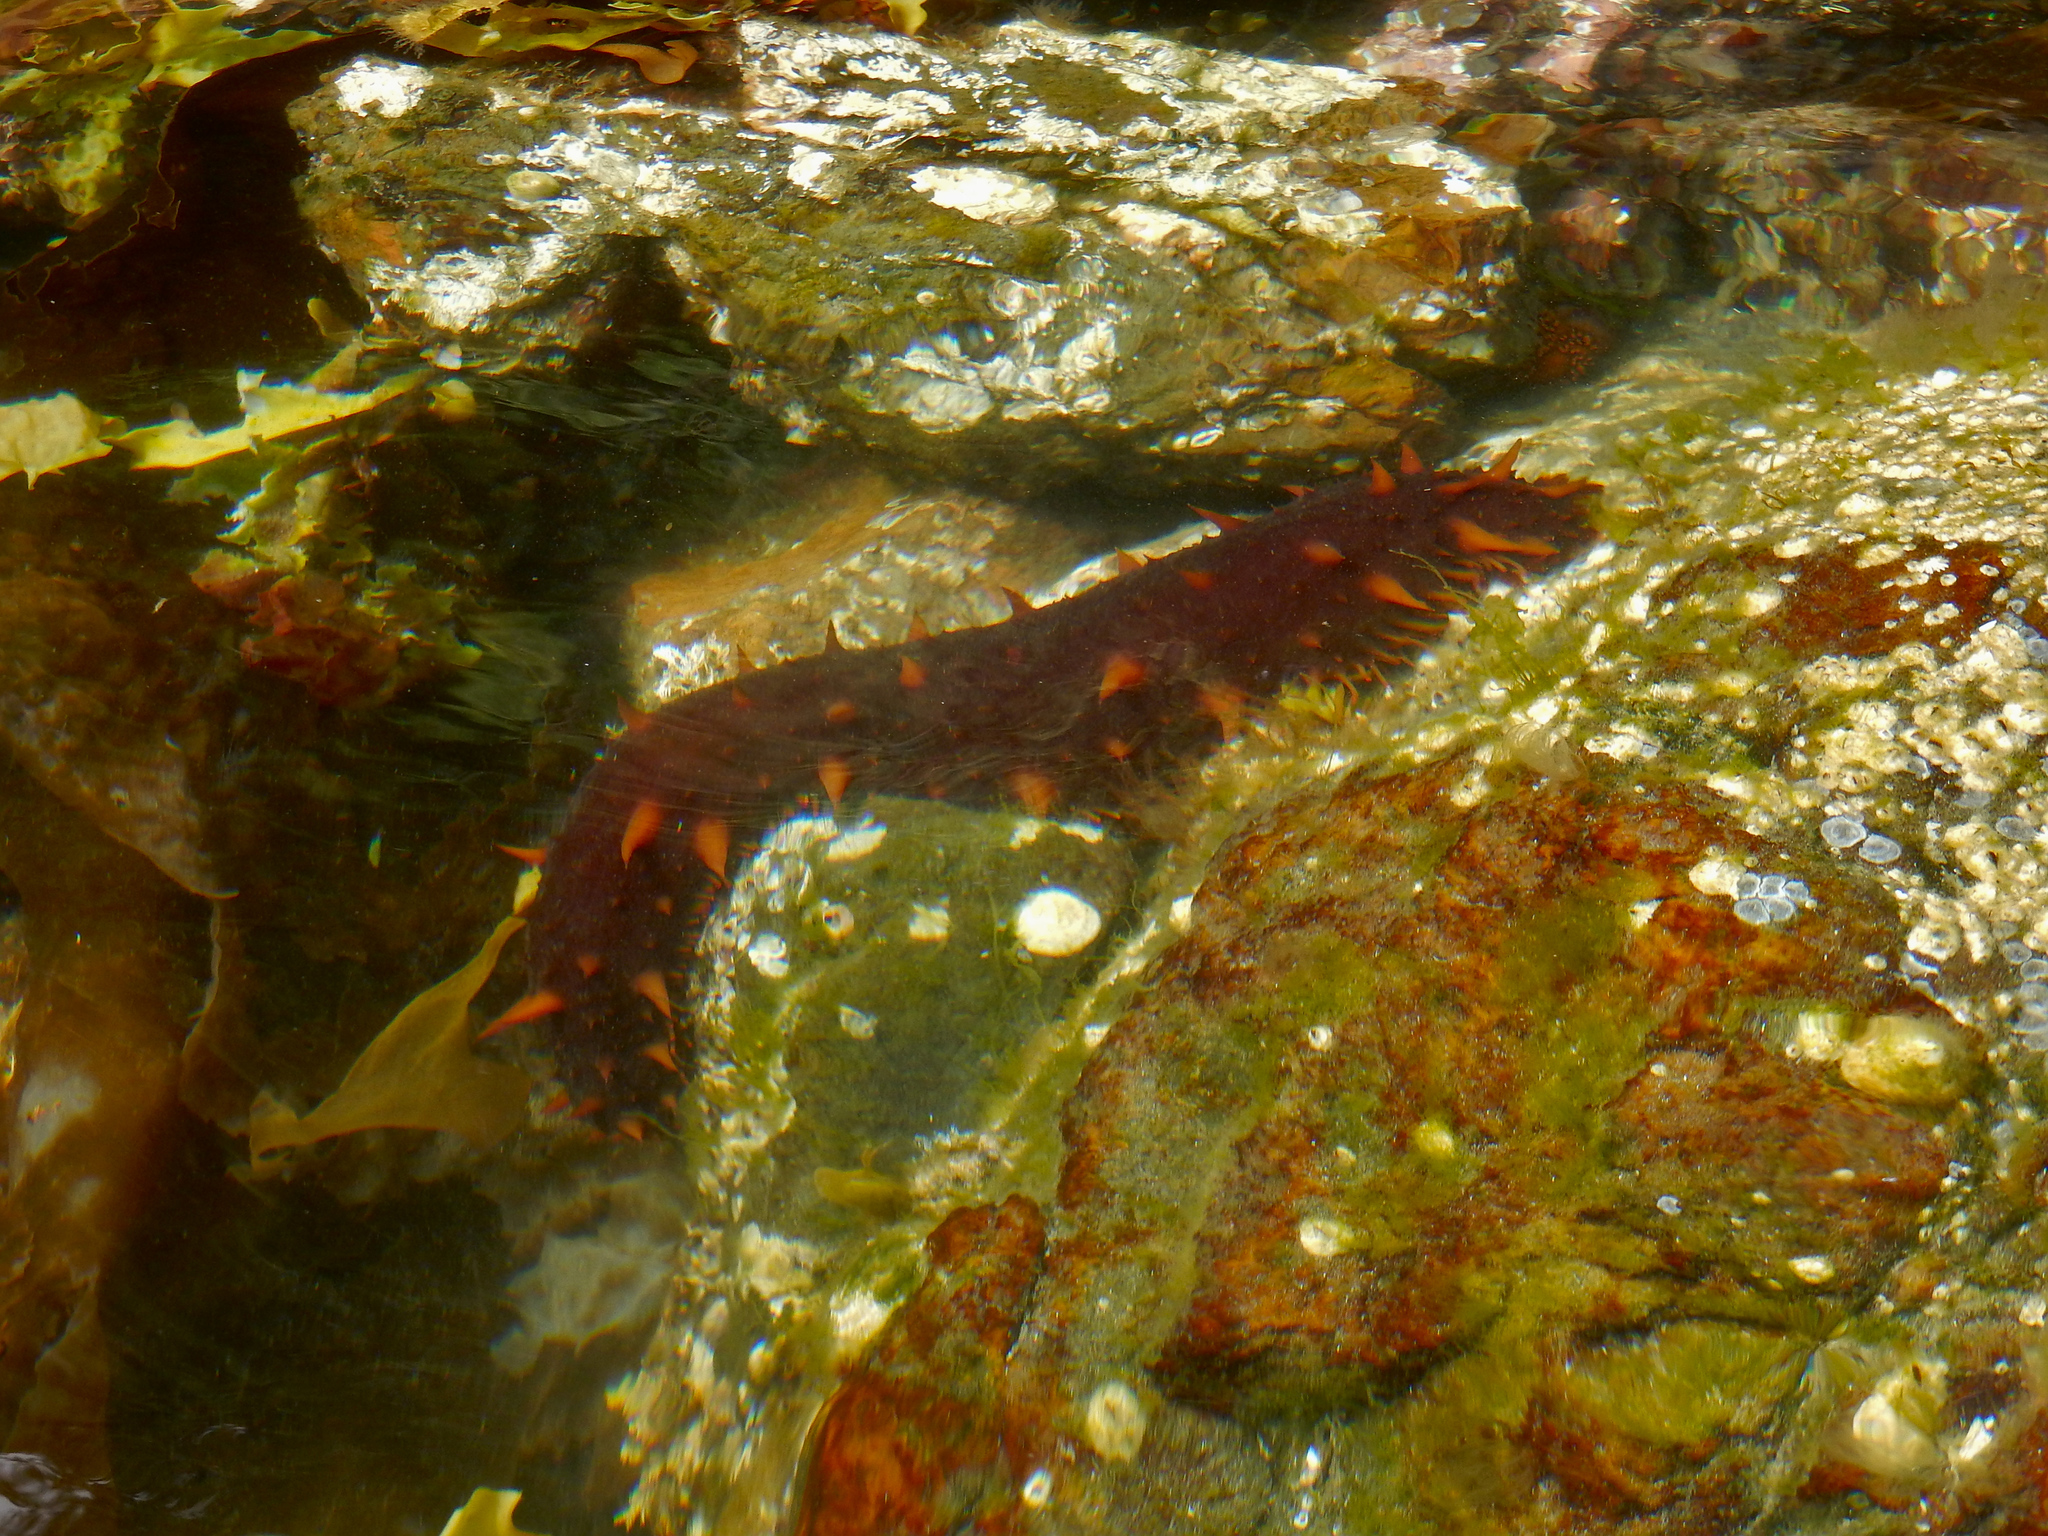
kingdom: Animalia
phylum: Echinodermata
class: Holothuroidea
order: Synallactida
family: Stichopodidae
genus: Apostichopus
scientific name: Apostichopus californicus
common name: California sea cucumber
